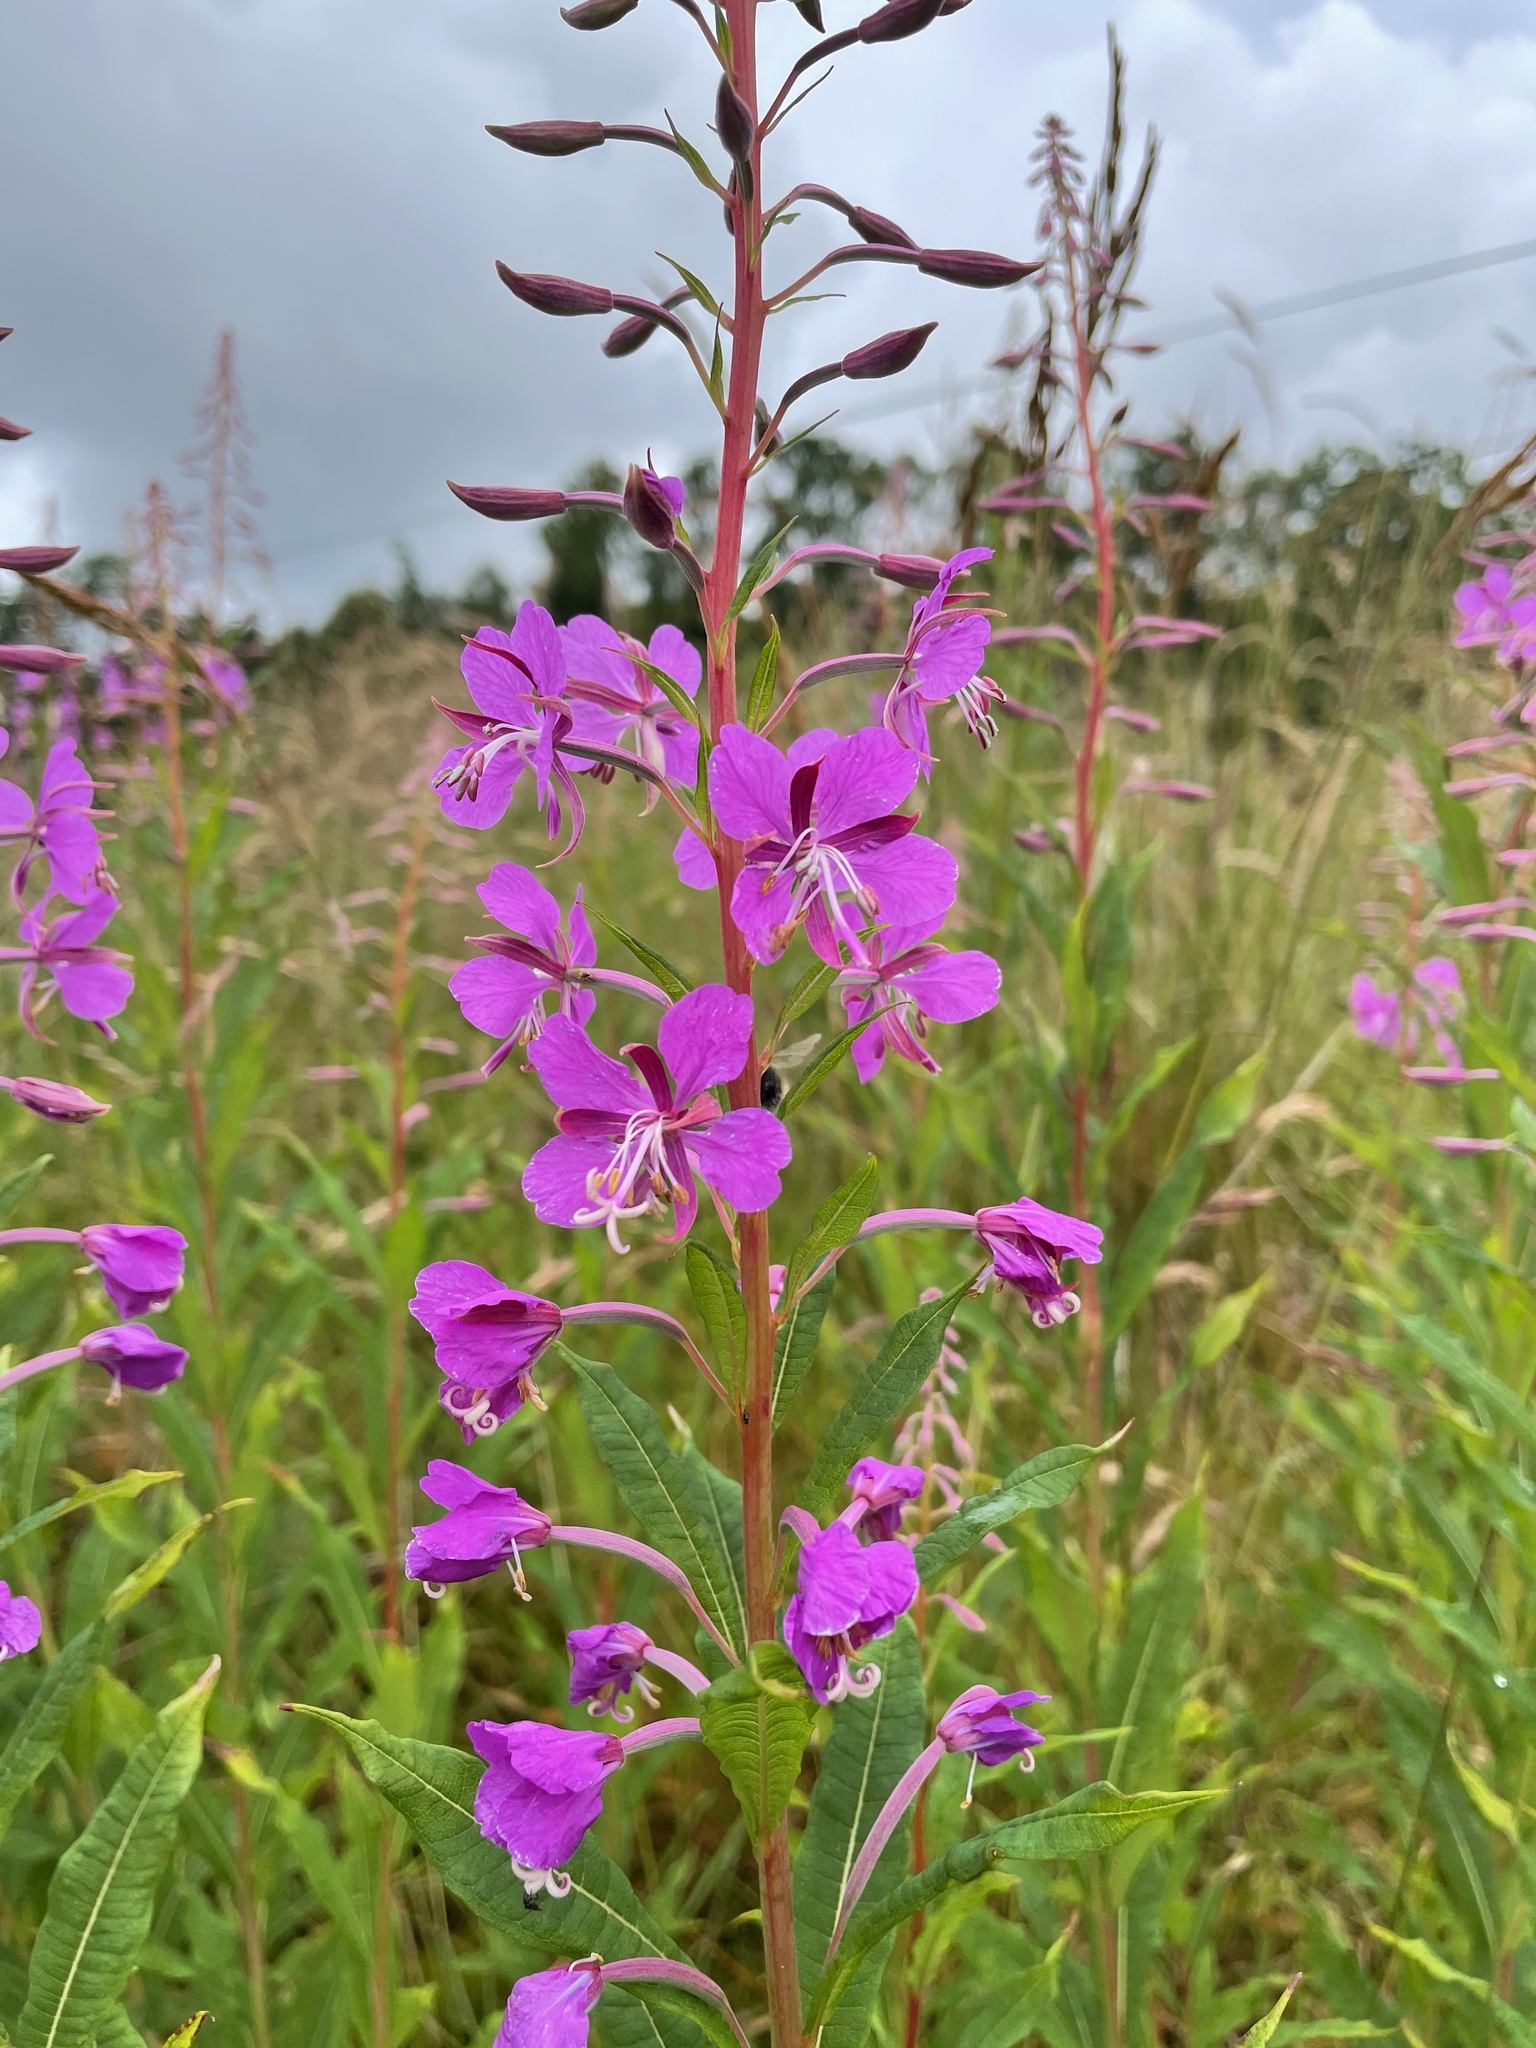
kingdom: Plantae
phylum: Tracheophyta
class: Magnoliopsida
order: Myrtales
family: Onagraceae
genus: Chamaenerion
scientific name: Chamaenerion angustifolium
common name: Fireweed
